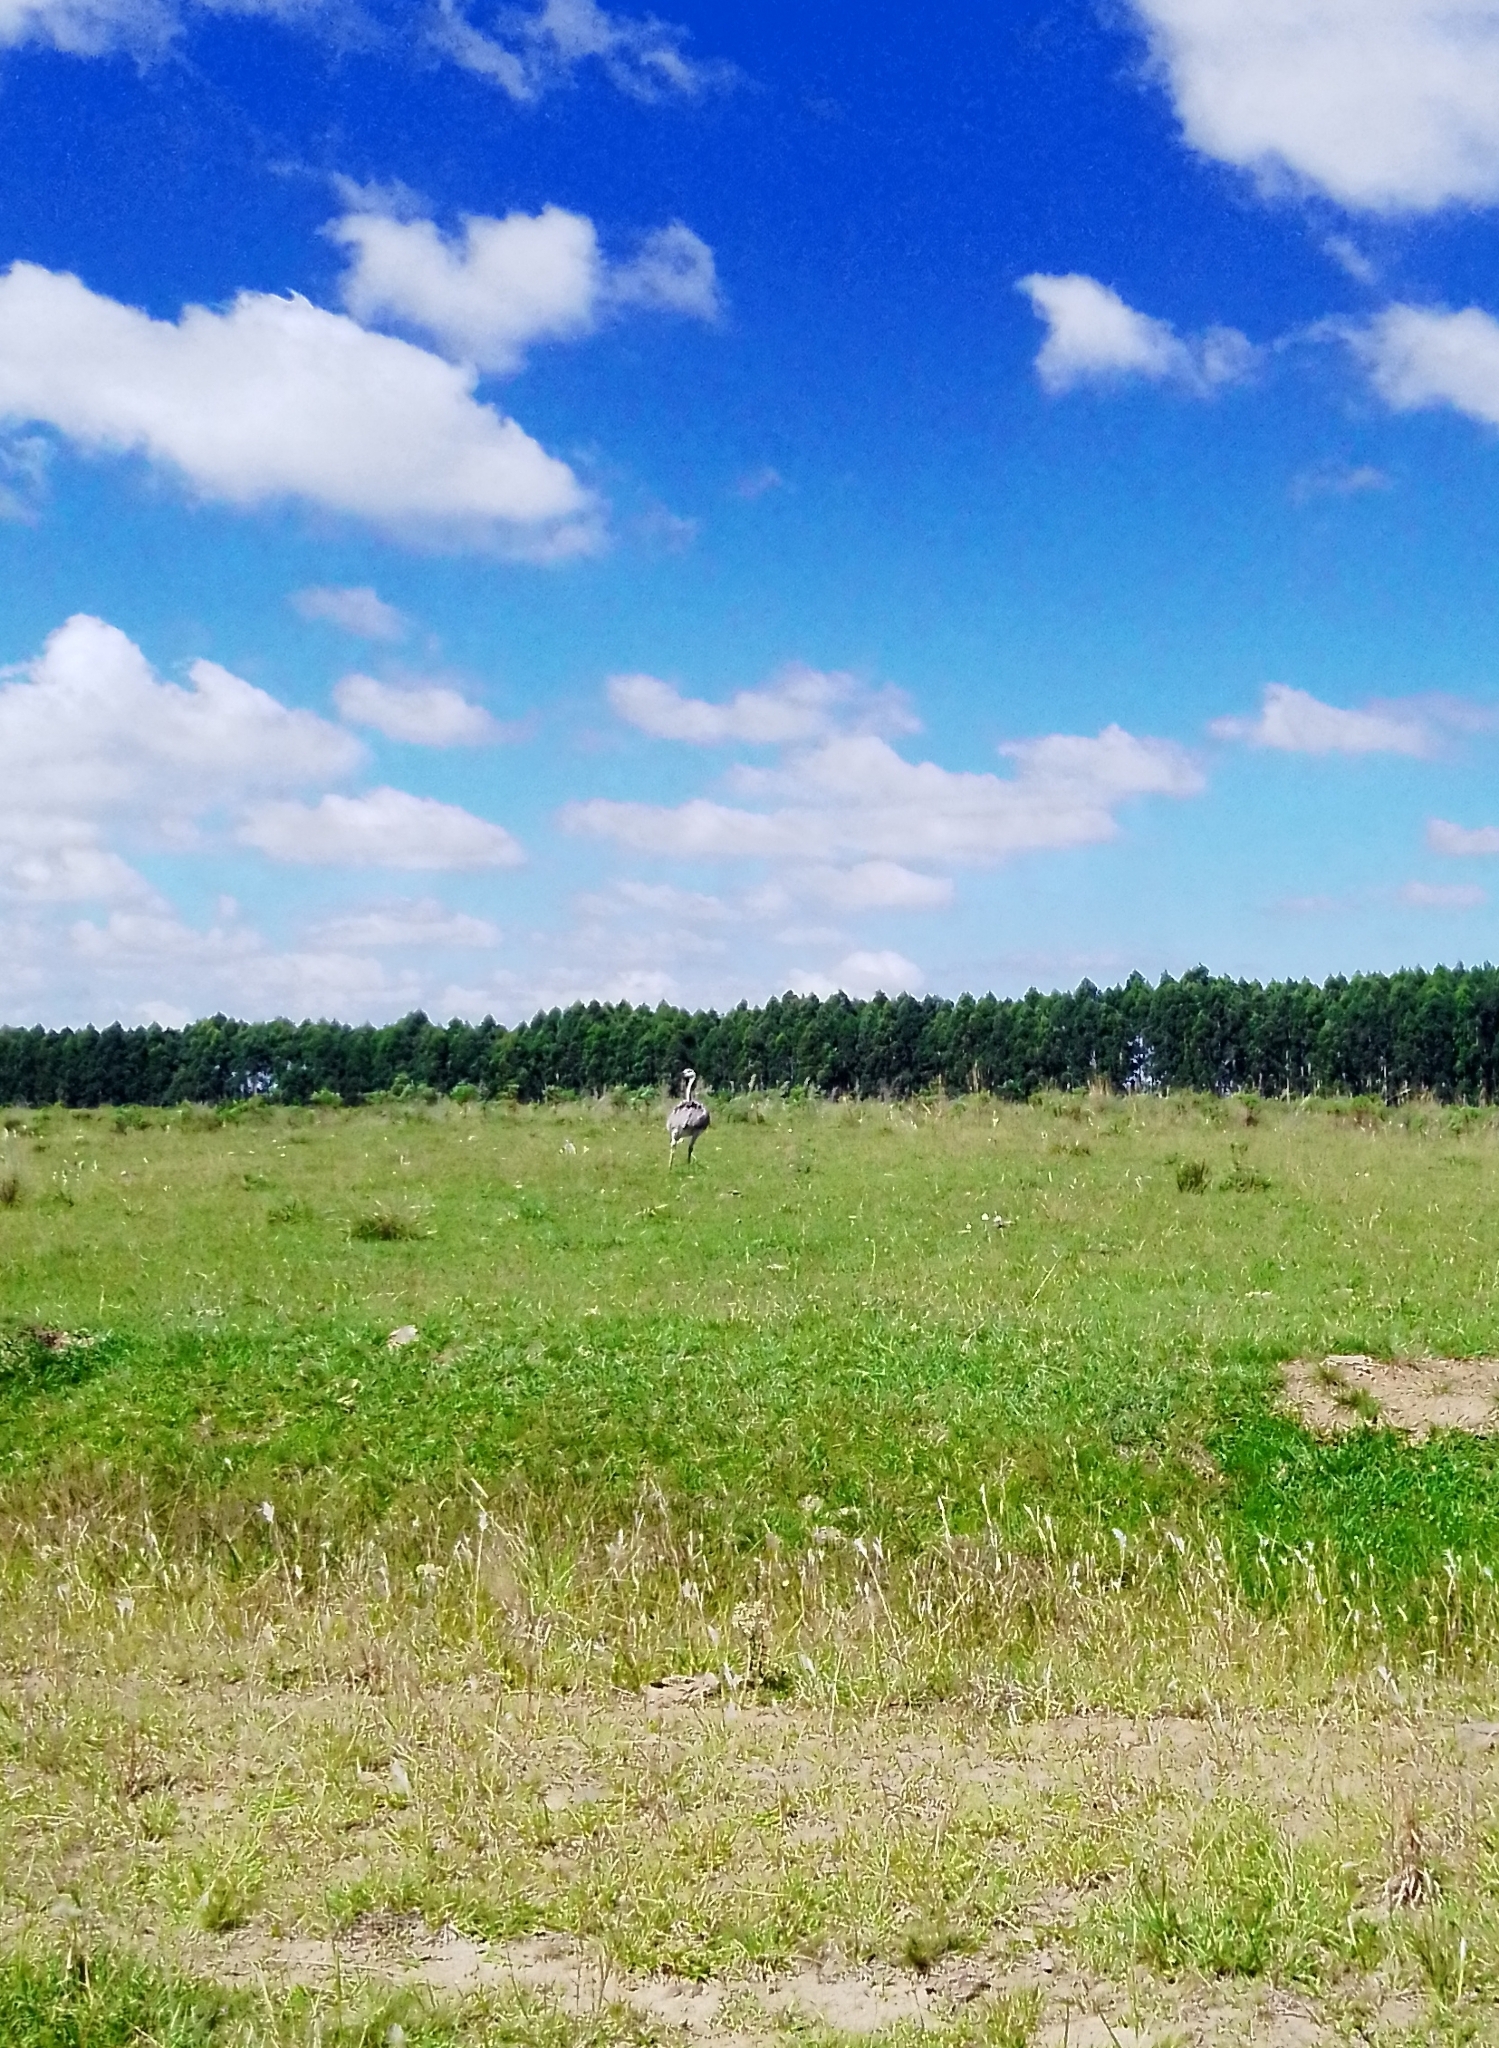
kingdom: Animalia
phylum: Chordata
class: Aves
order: Rheiformes
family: Rheidae
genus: Rhea
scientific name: Rhea americana
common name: Greater rhea
